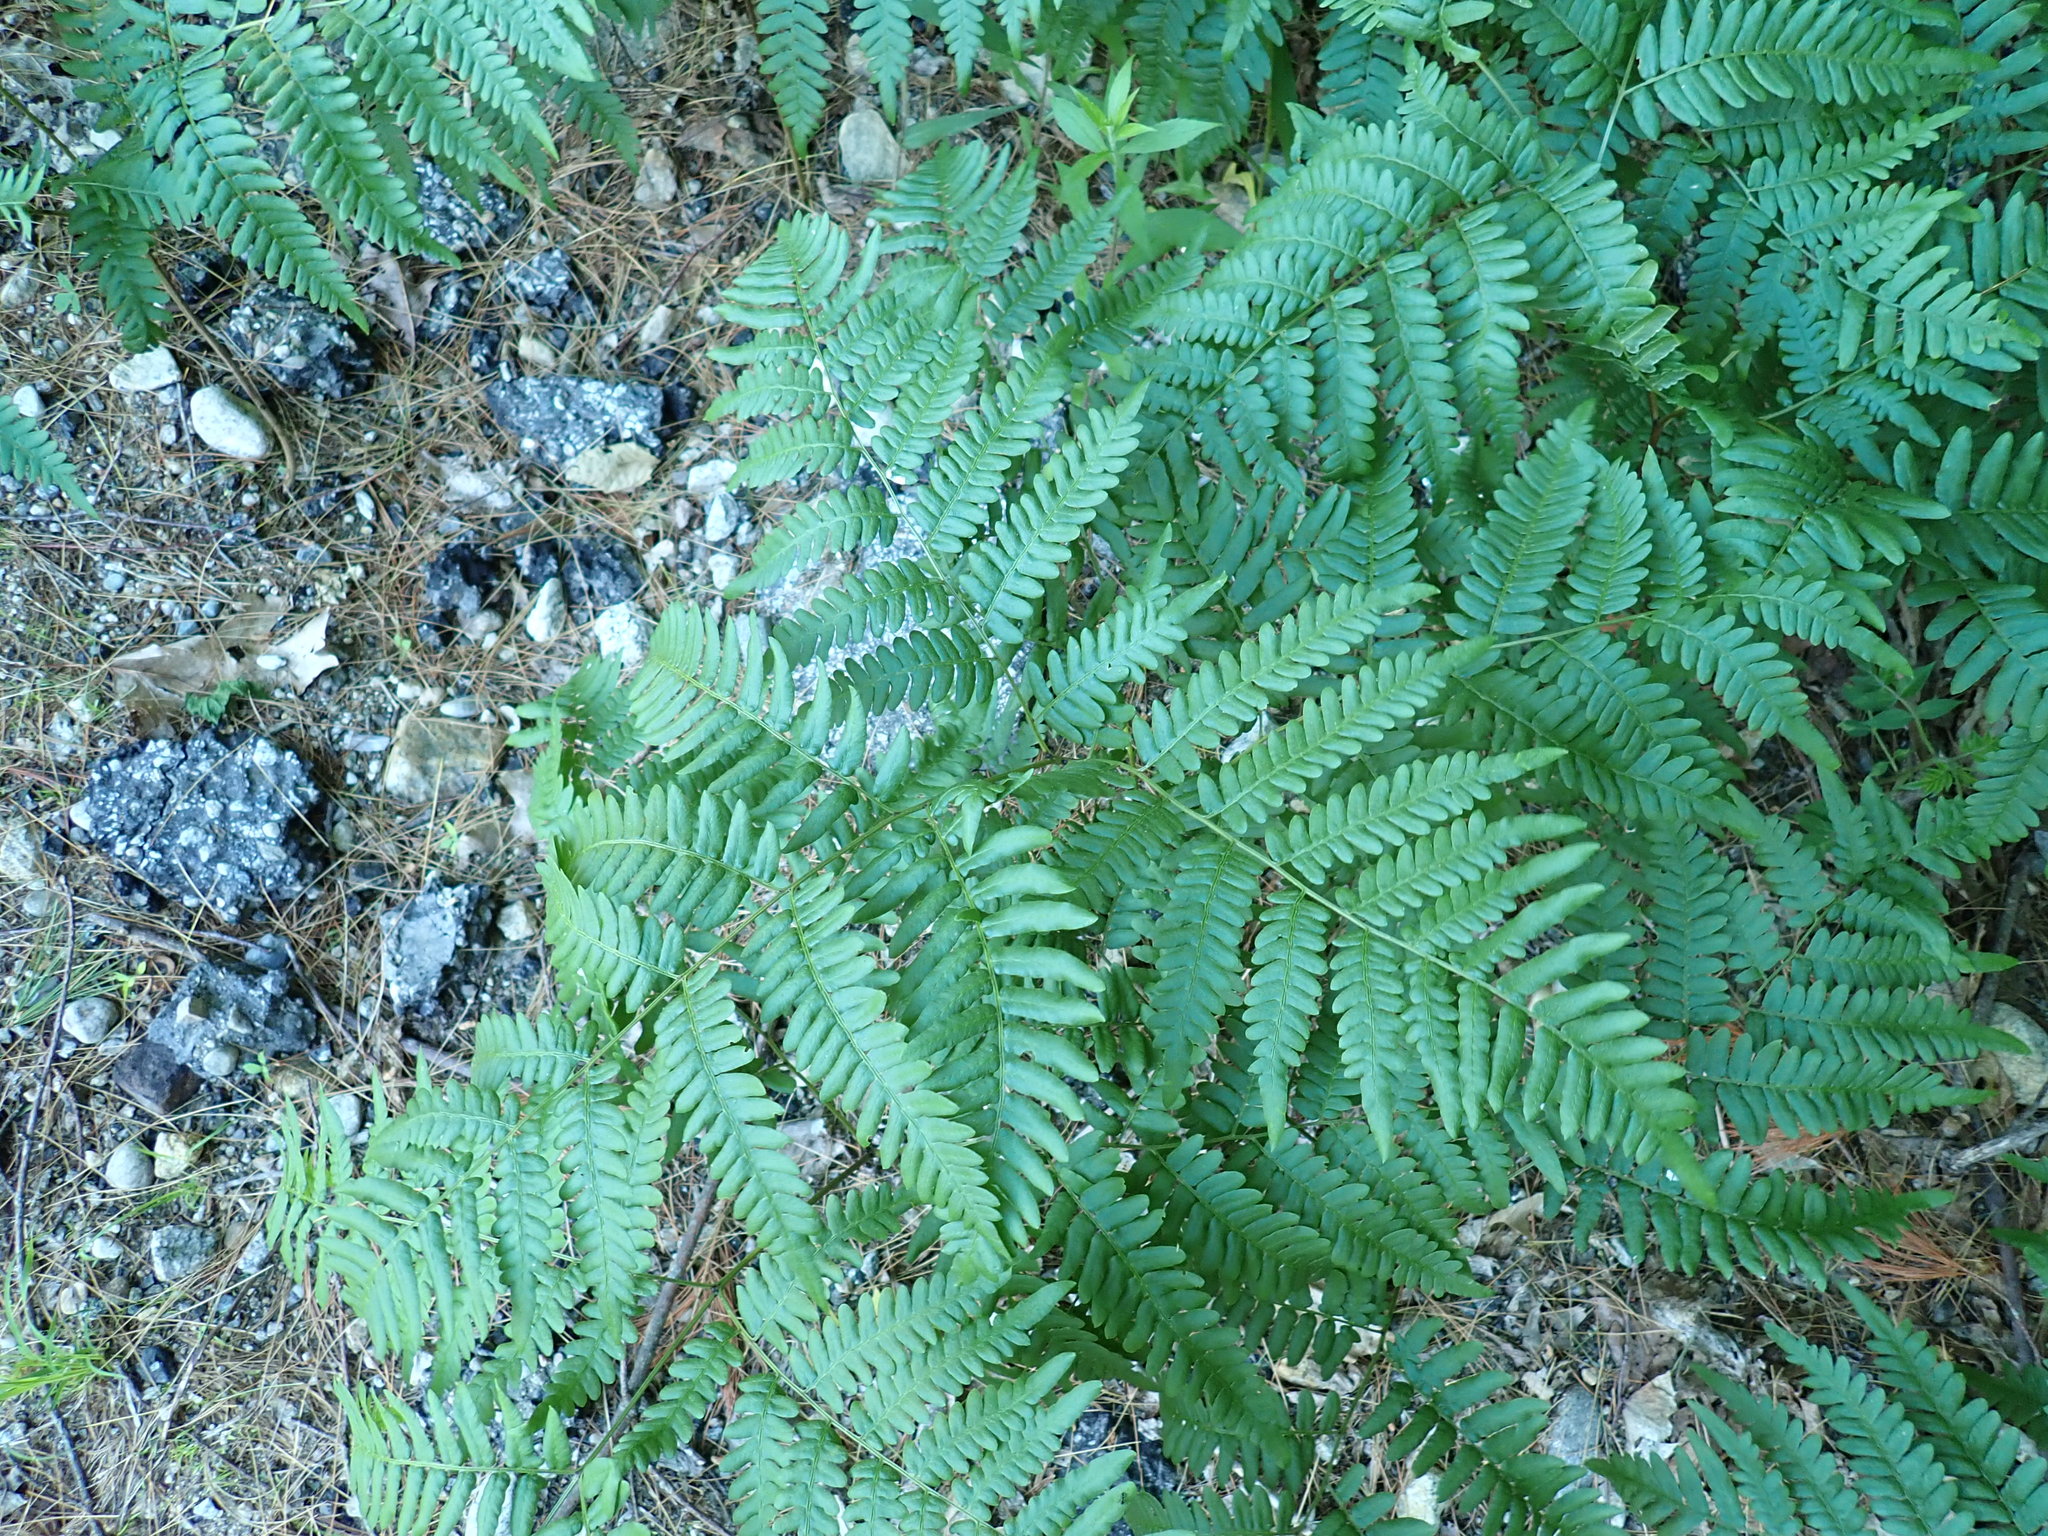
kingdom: Plantae
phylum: Tracheophyta
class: Polypodiopsida
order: Polypodiales
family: Dennstaedtiaceae
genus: Pteridium
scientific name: Pteridium aquilinum
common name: Bracken
